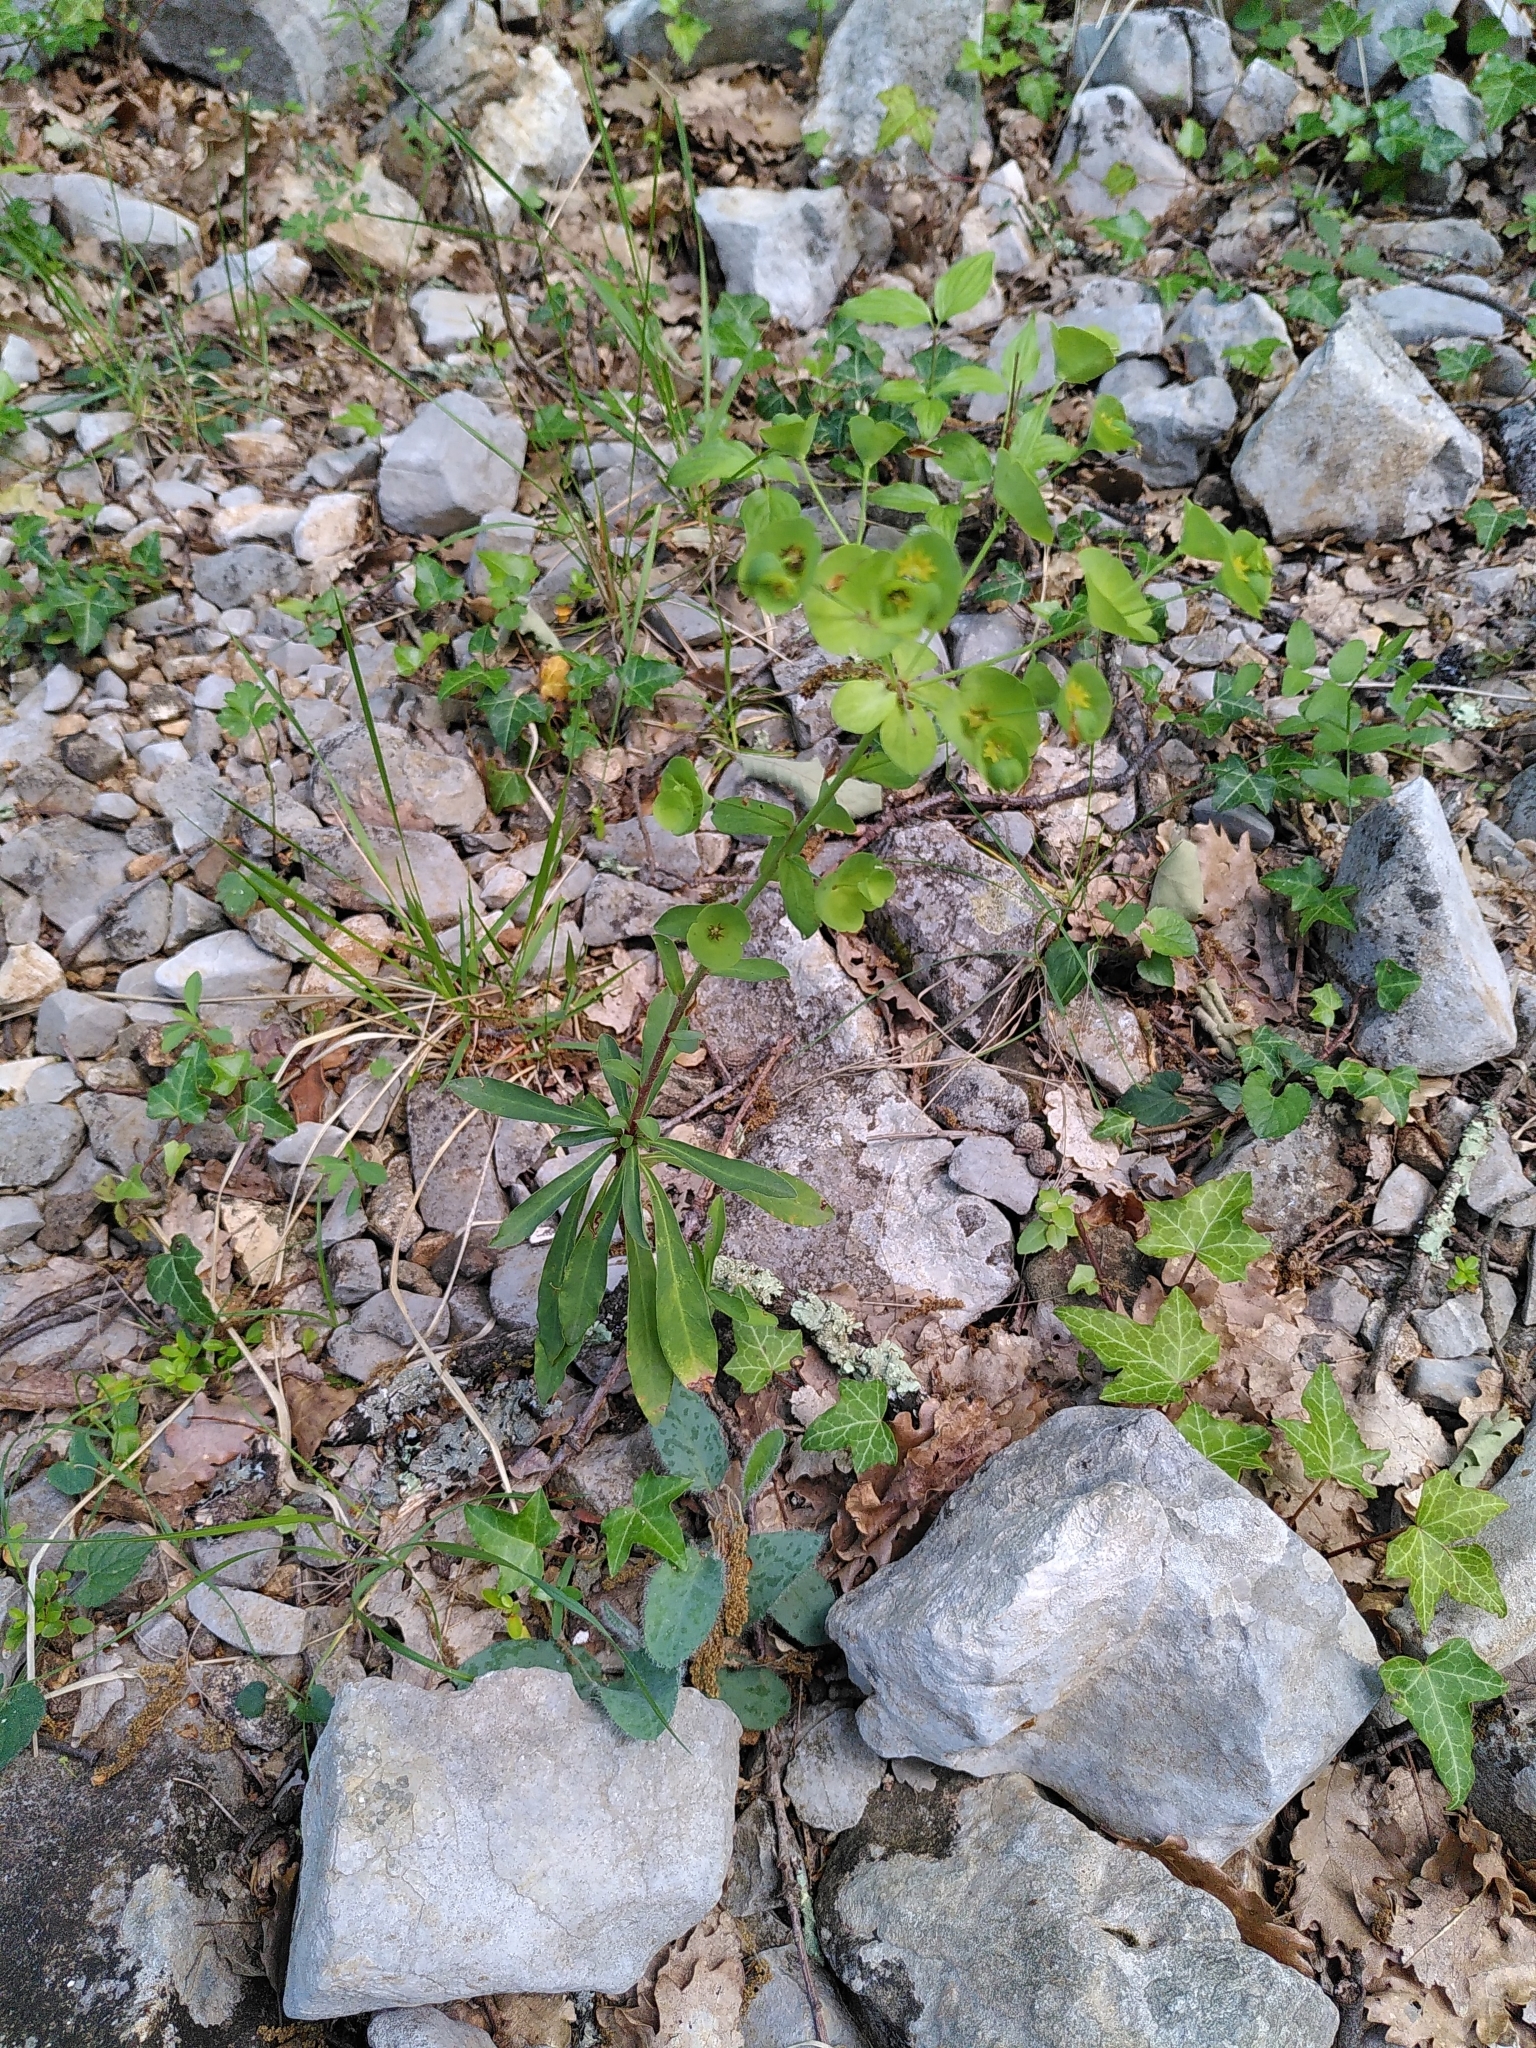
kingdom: Plantae
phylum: Tracheophyta
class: Magnoliopsida
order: Malpighiales
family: Euphorbiaceae
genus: Euphorbia
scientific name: Euphorbia amygdaloides
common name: Wood spurge
